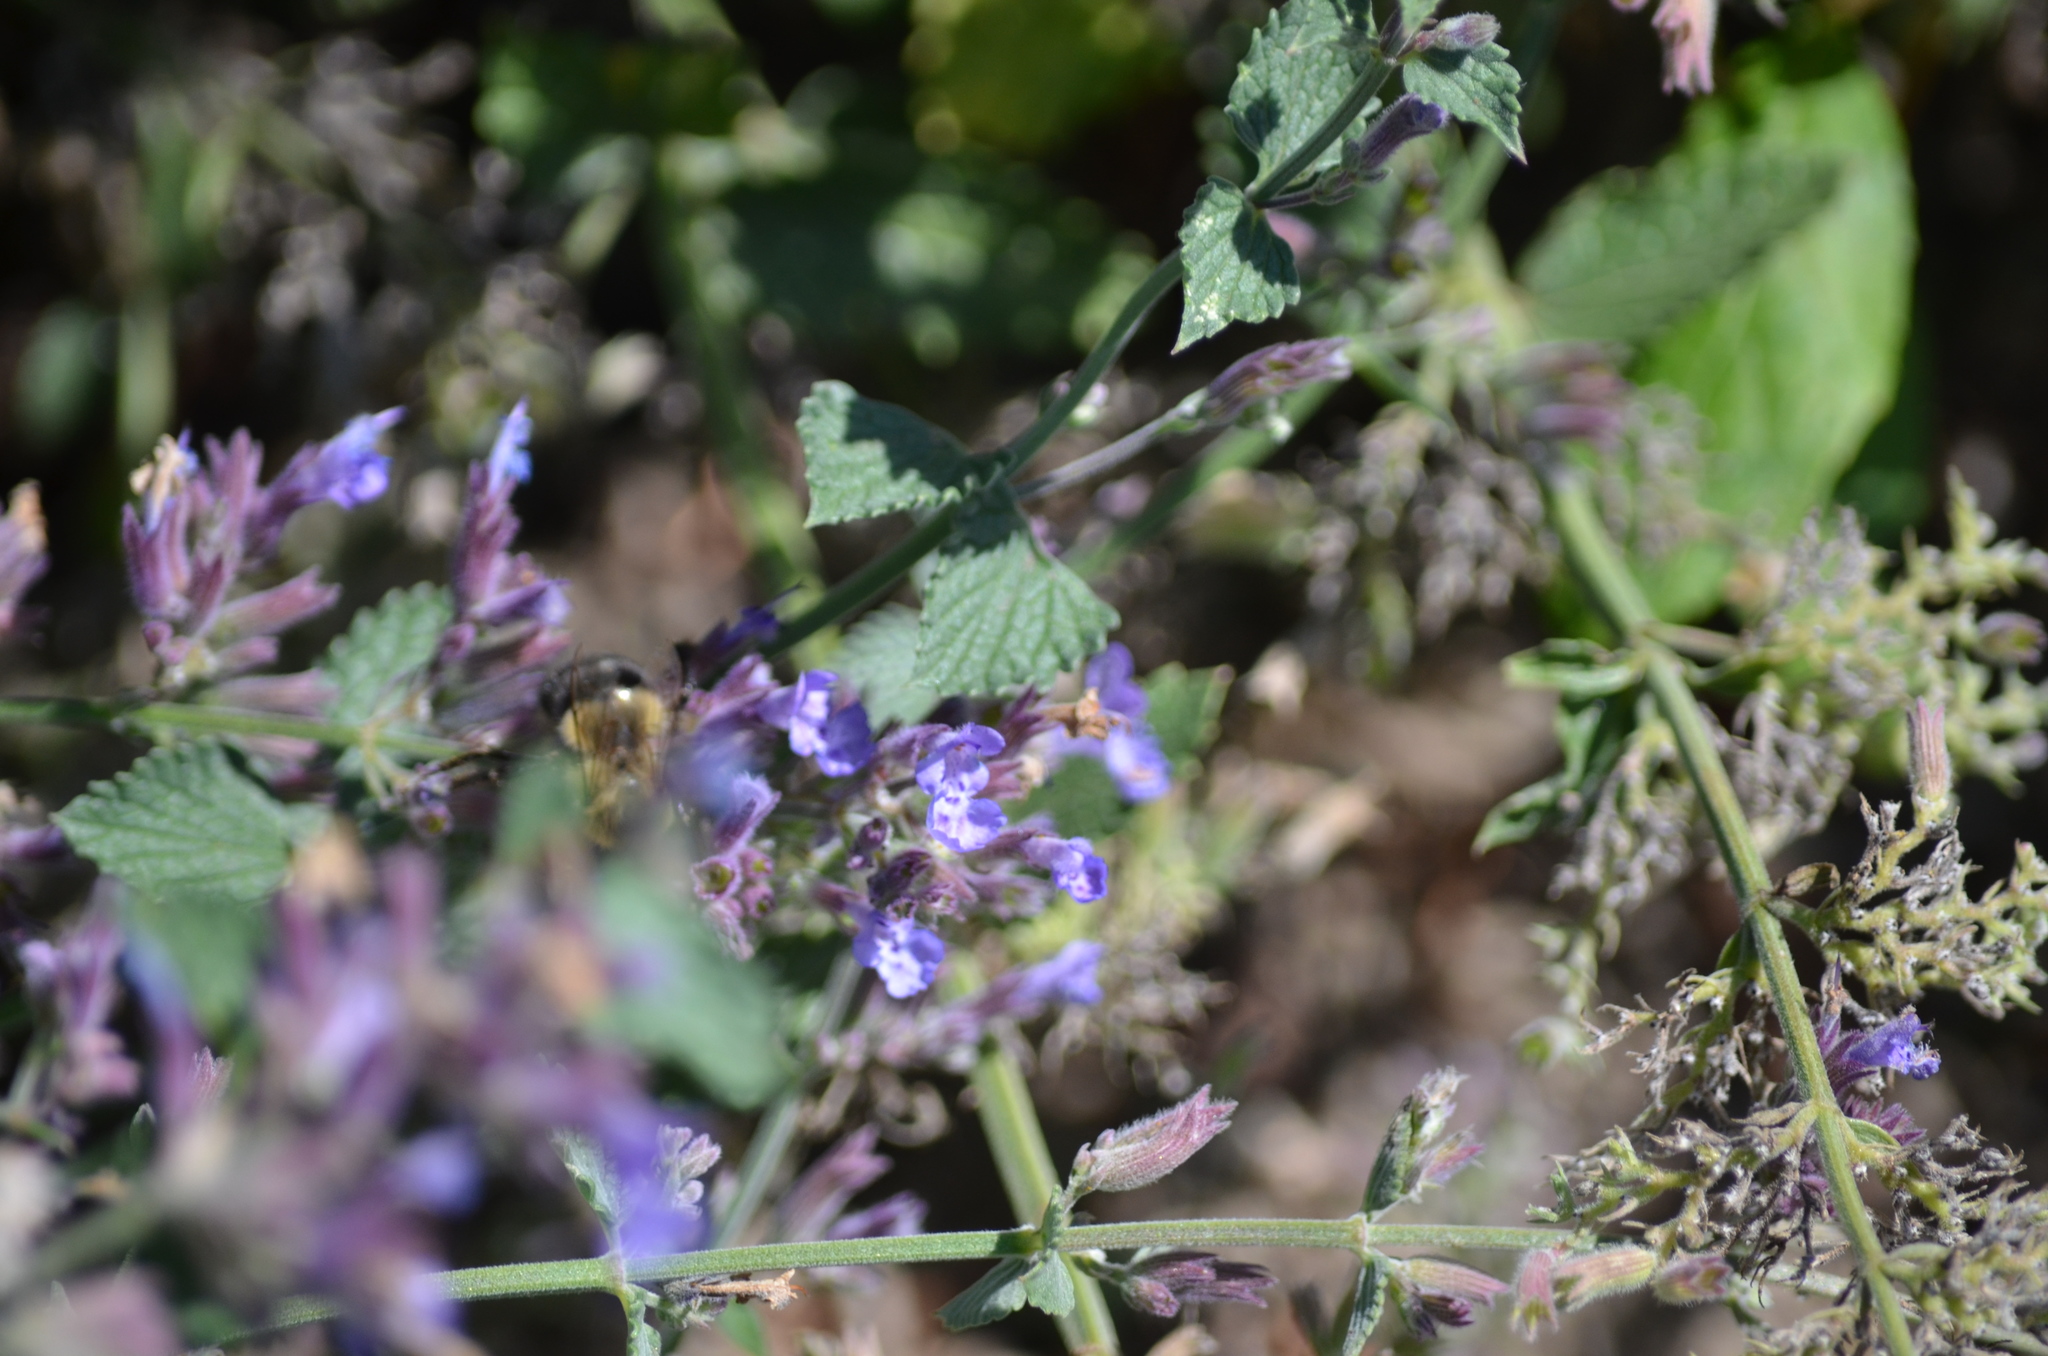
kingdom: Animalia
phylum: Arthropoda
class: Insecta
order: Hymenoptera
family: Apidae
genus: Bombus
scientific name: Bombus impatiens
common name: Common eastern bumble bee
